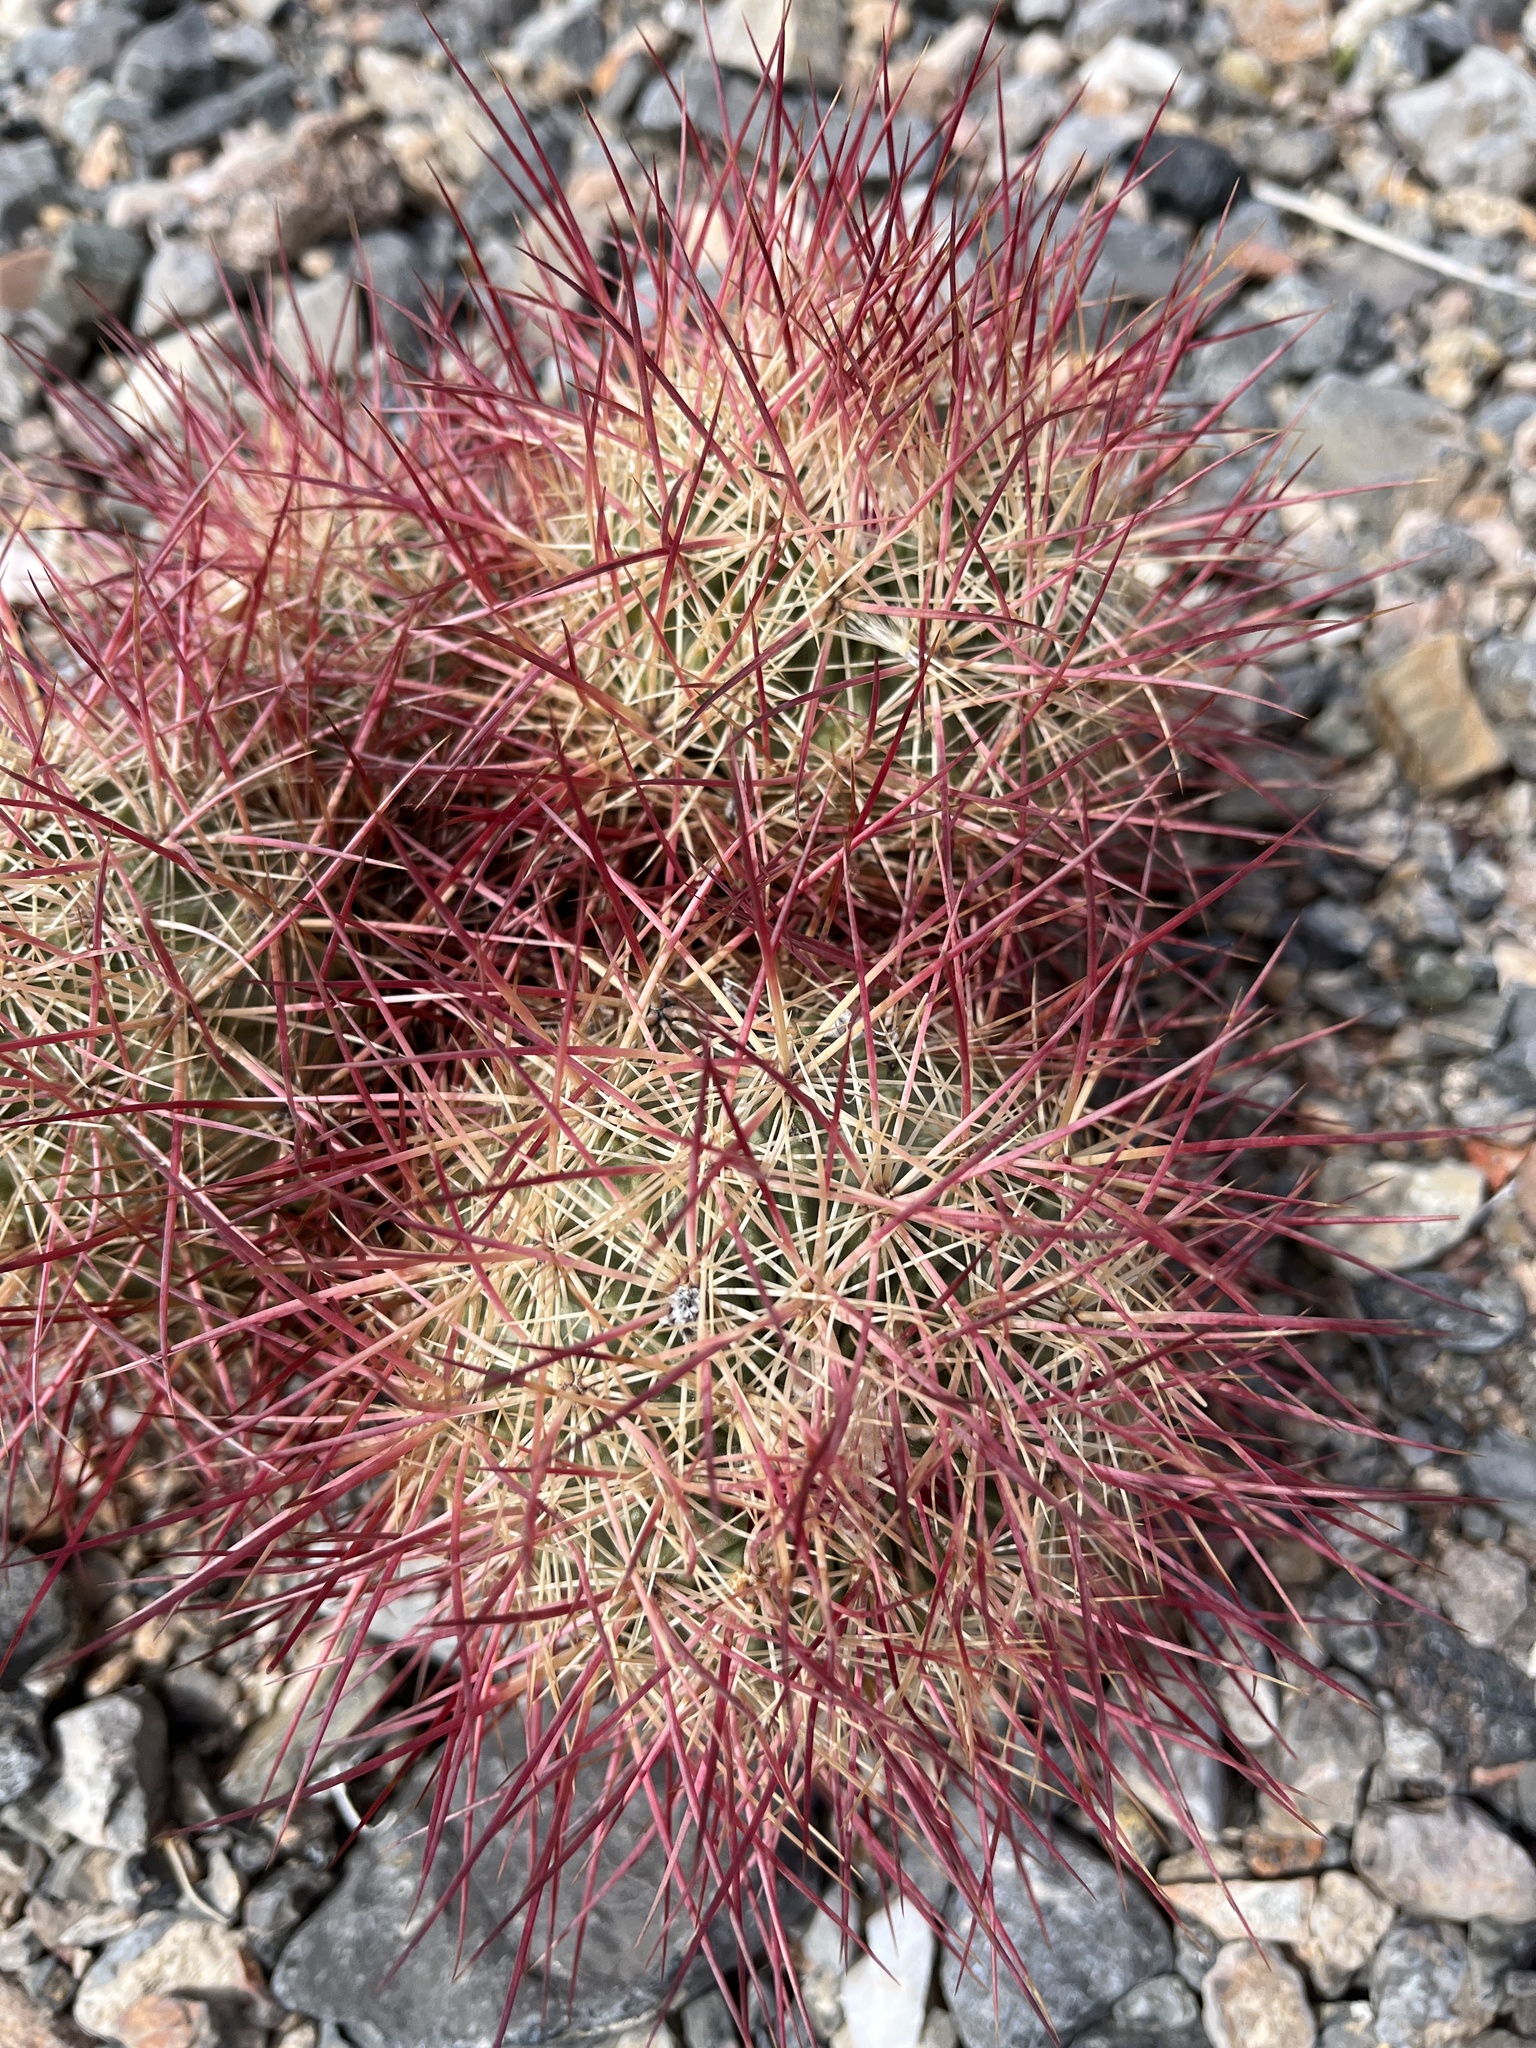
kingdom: Plantae
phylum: Tracheophyta
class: Magnoliopsida
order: Caryophyllales
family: Cactaceae
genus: Sclerocactus
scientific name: Sclerocactus johnsonii
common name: Eight-spine fishhook cactus
